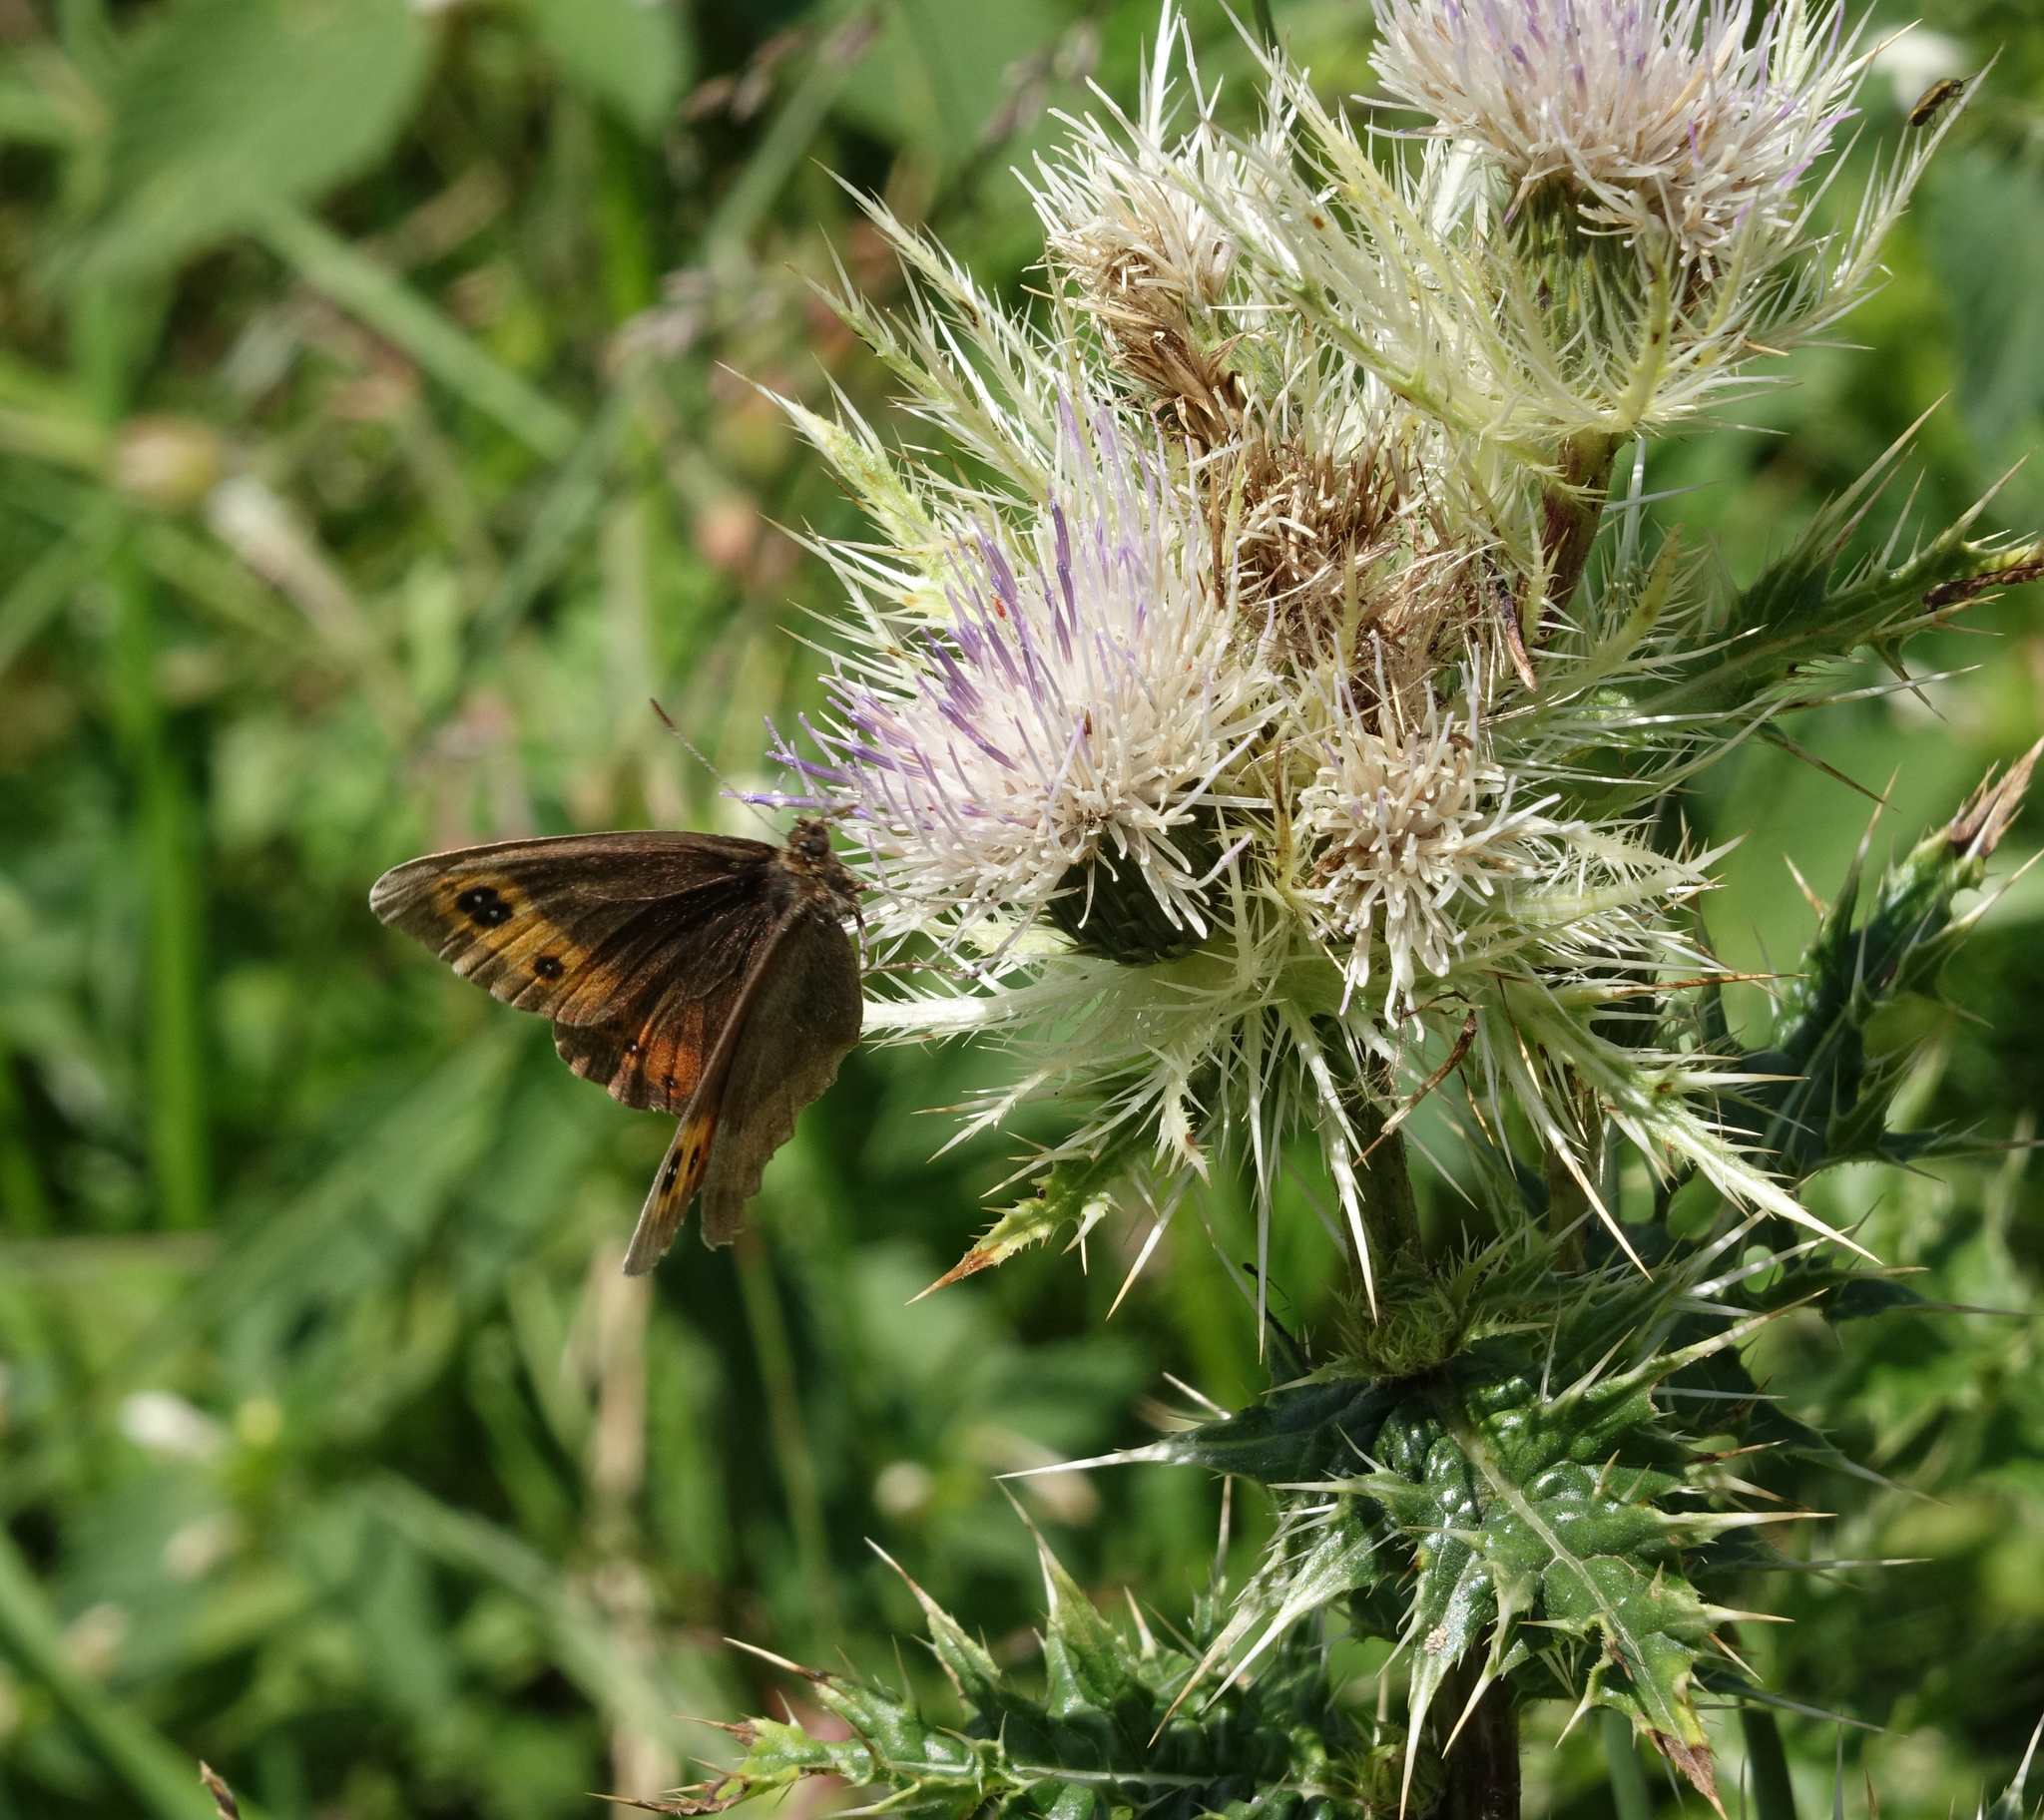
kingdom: Plantae
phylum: Tracheophyta
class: Magnoliopsida
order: Asterales
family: Asteraceae
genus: Cirsium
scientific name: Cirsium obvallatum
